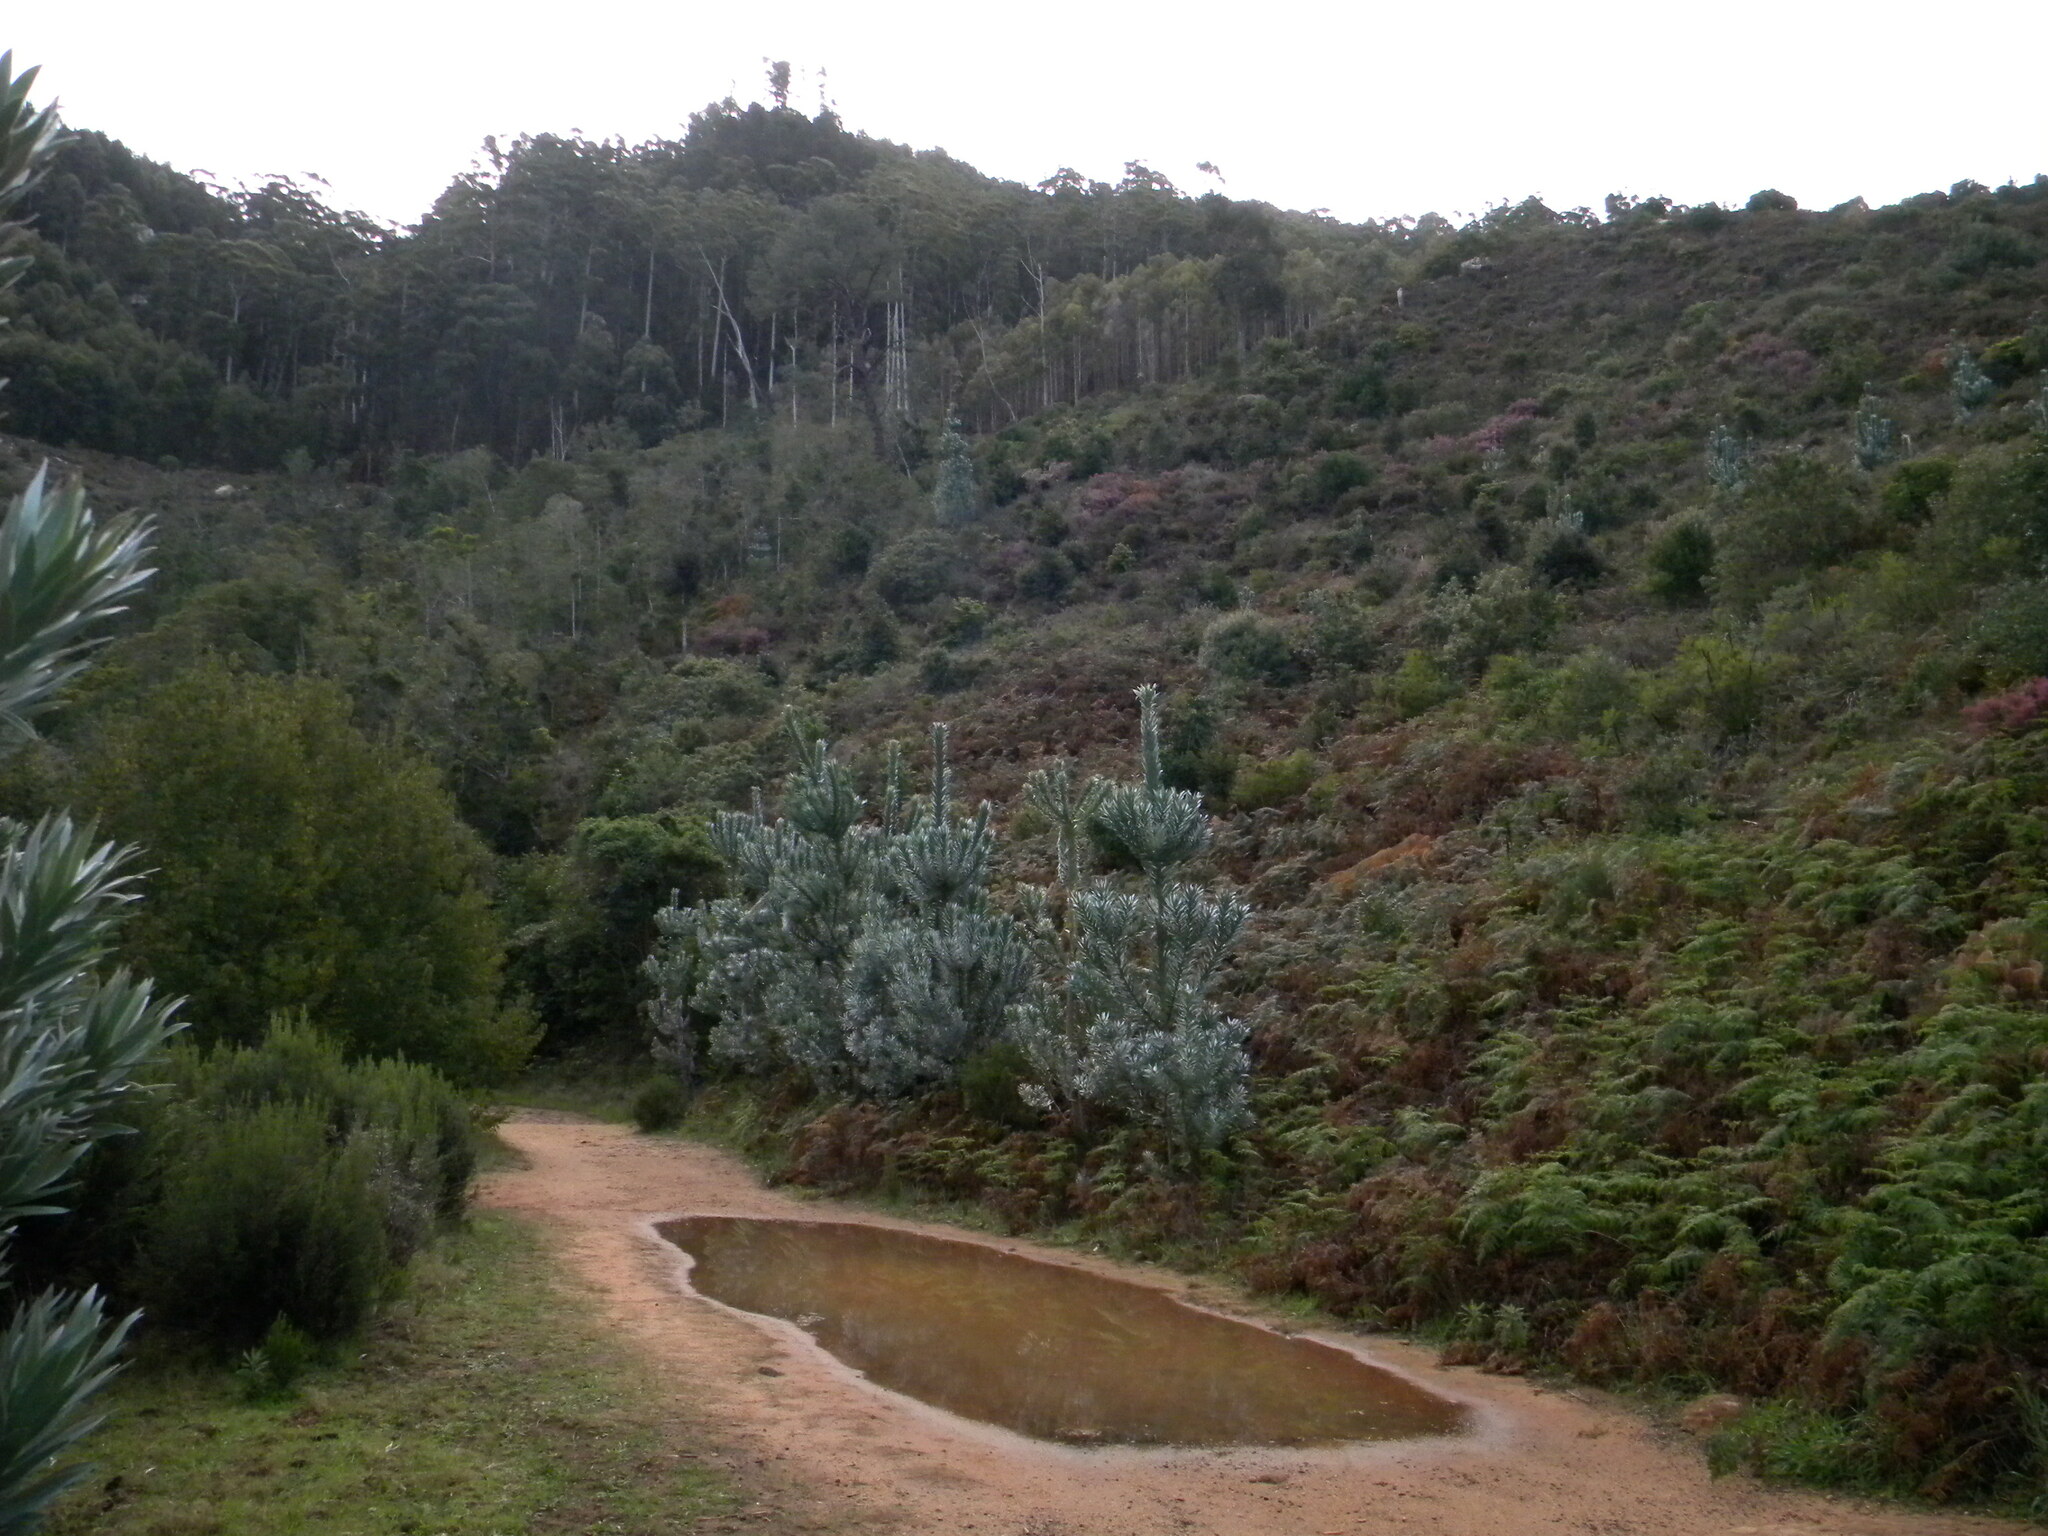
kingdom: Plantae
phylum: Tracheophyta
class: Magnoliopsida
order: Proteales
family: Proteaceae
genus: Leucadendron
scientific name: Leucadendron argenteum
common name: Cape silver tree
